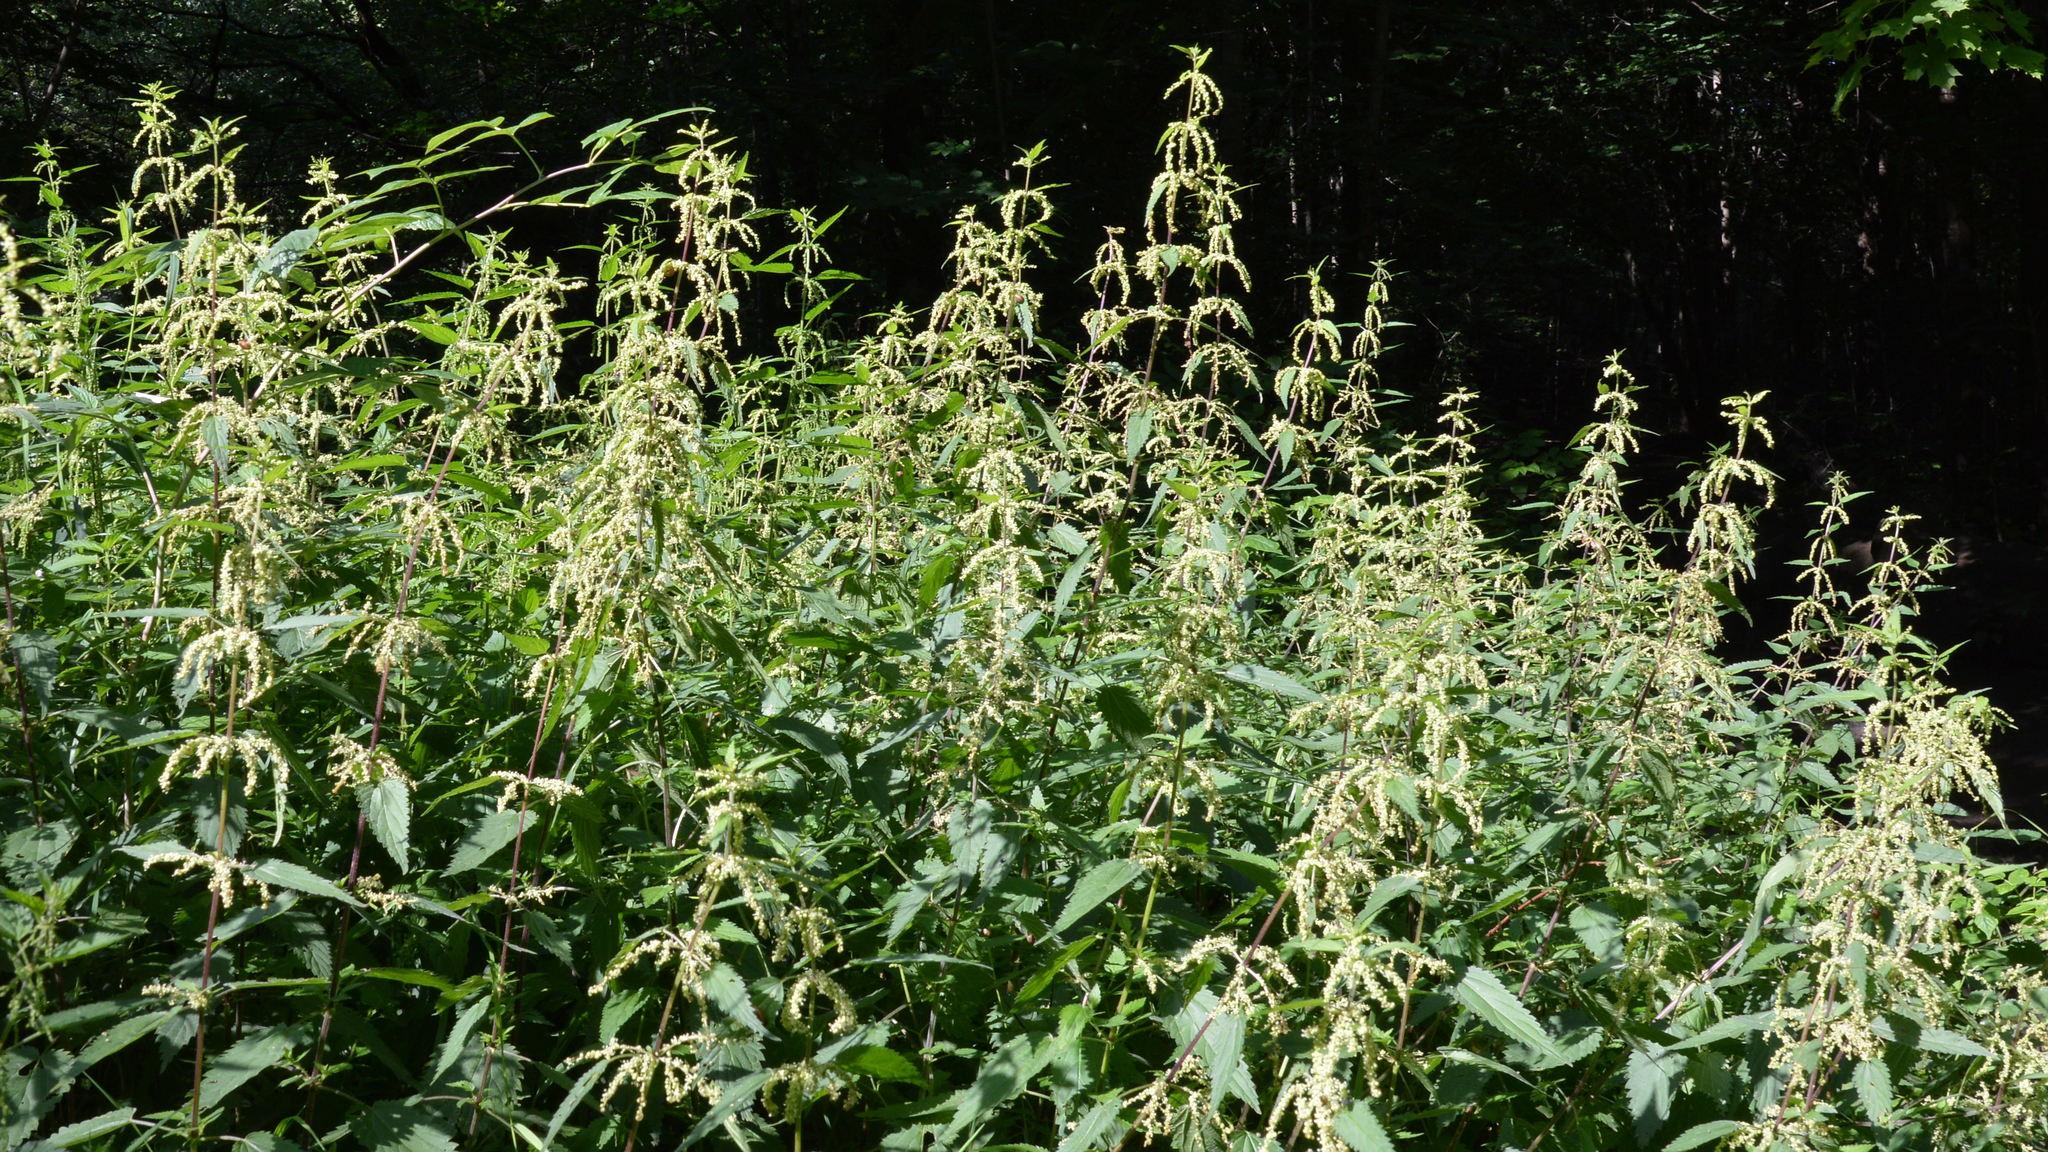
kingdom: Plantae
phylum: Tracheophyta
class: Magnoliopsida
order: Rosales
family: Urticaceae
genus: Urtica
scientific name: Urtica dioica
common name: Common nettle
